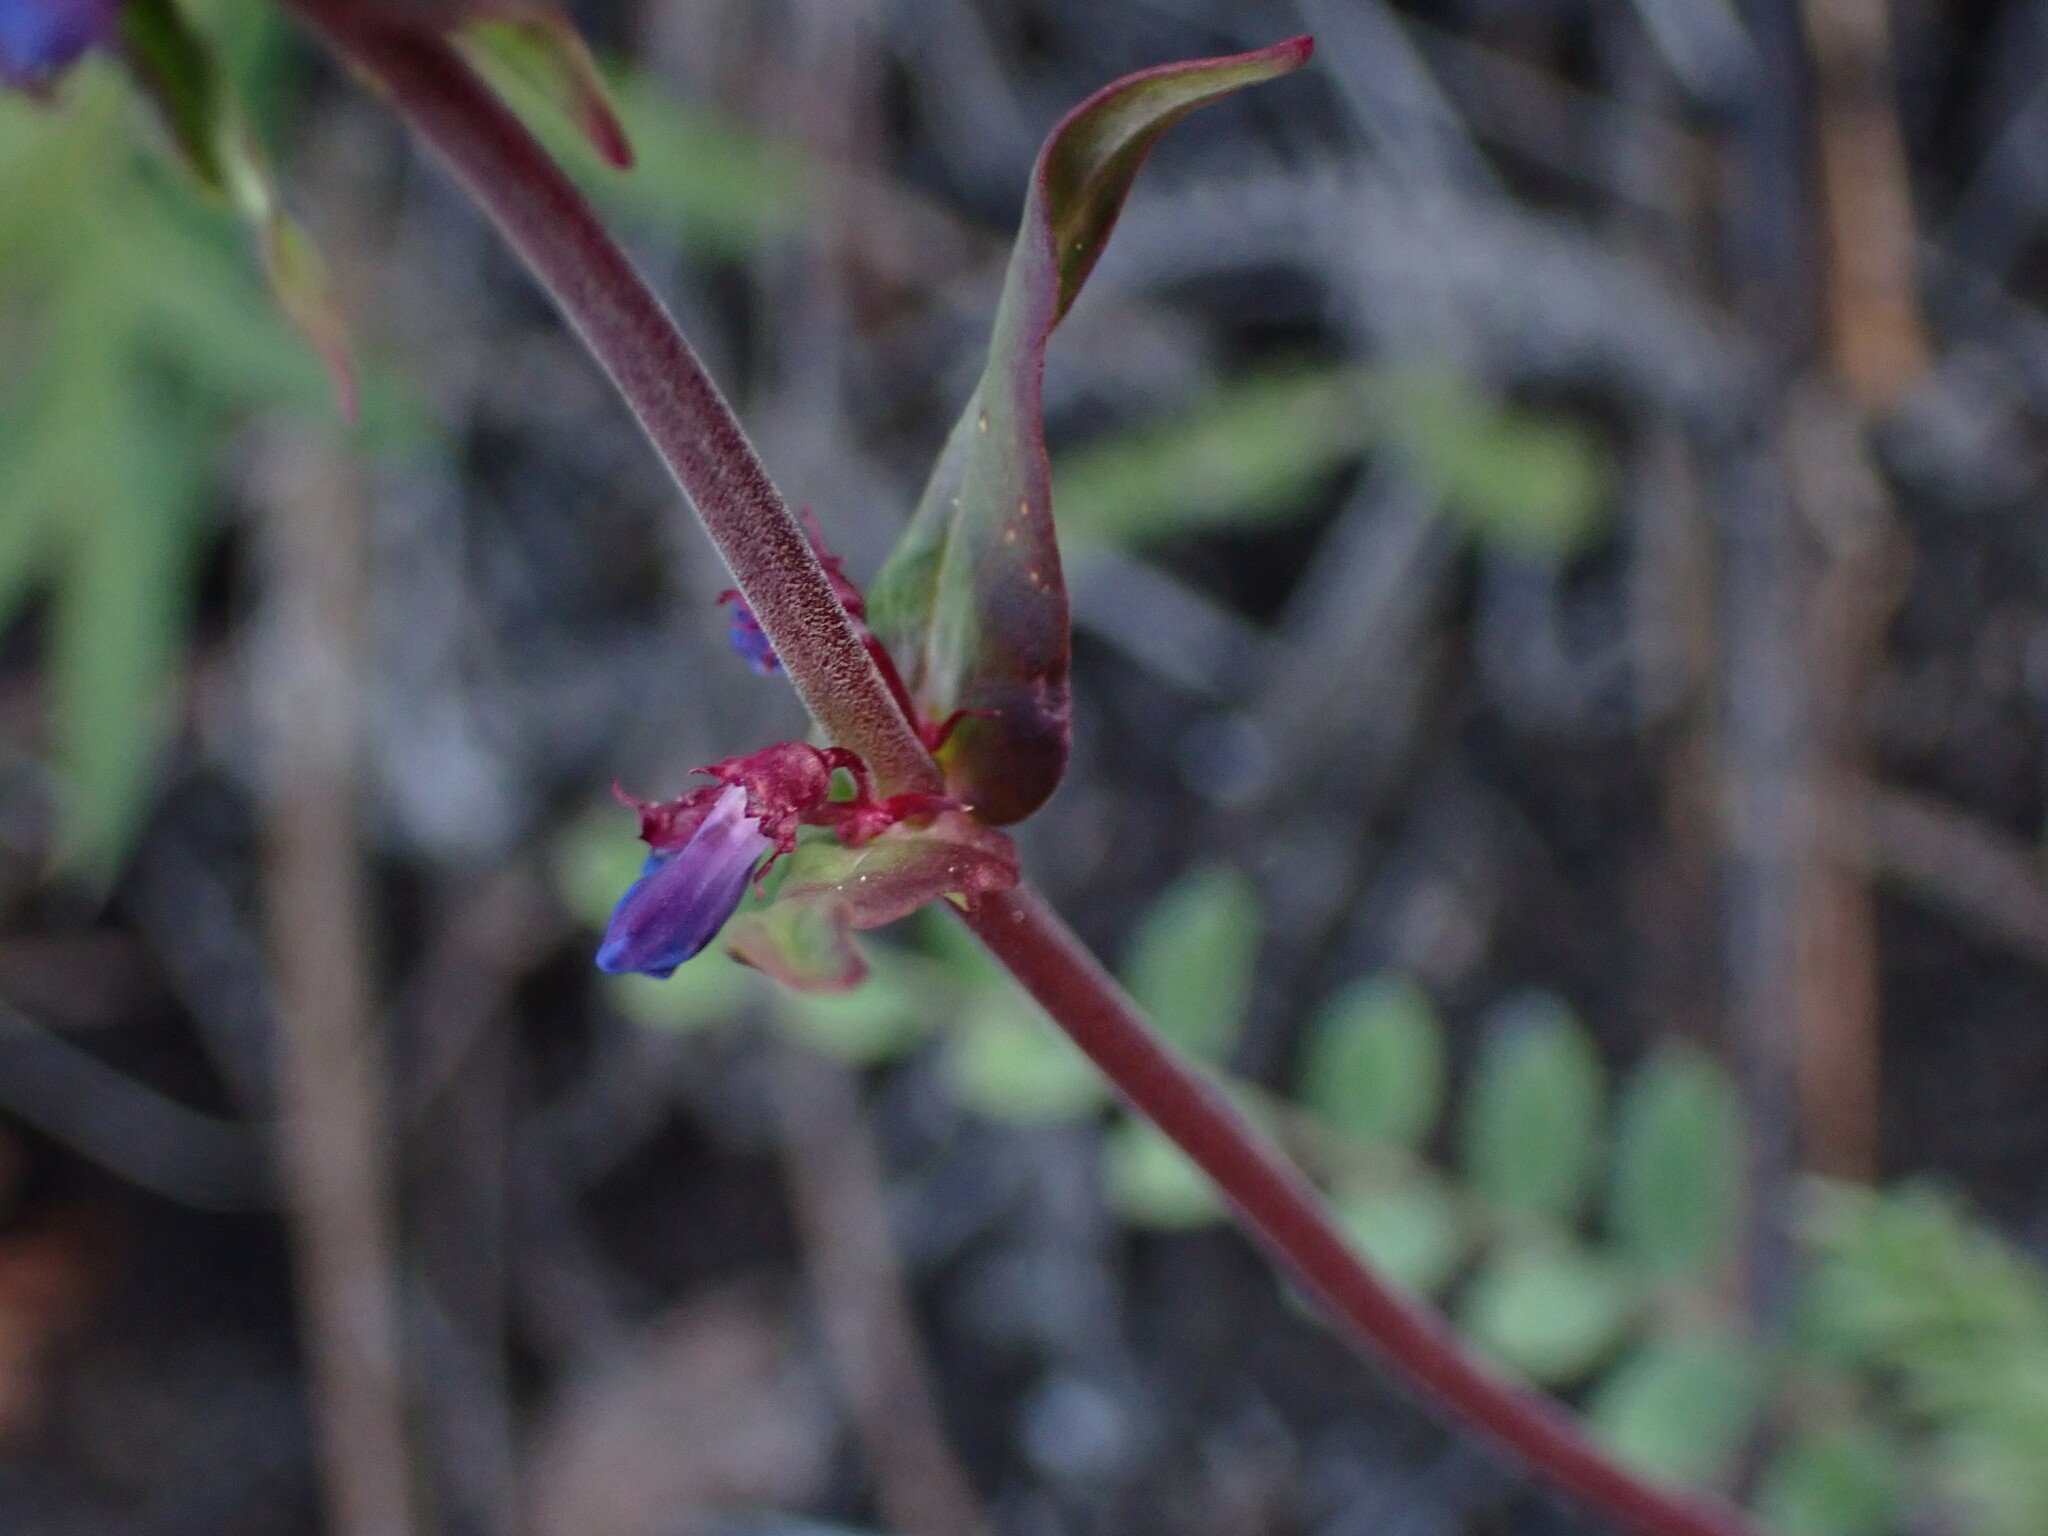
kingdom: Plantae
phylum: Tracheophyta
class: Magnoliopsida
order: Lamiales
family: Plantaginaceae
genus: Penstemon
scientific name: Penstemon procerus
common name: Small-flower penstemon
